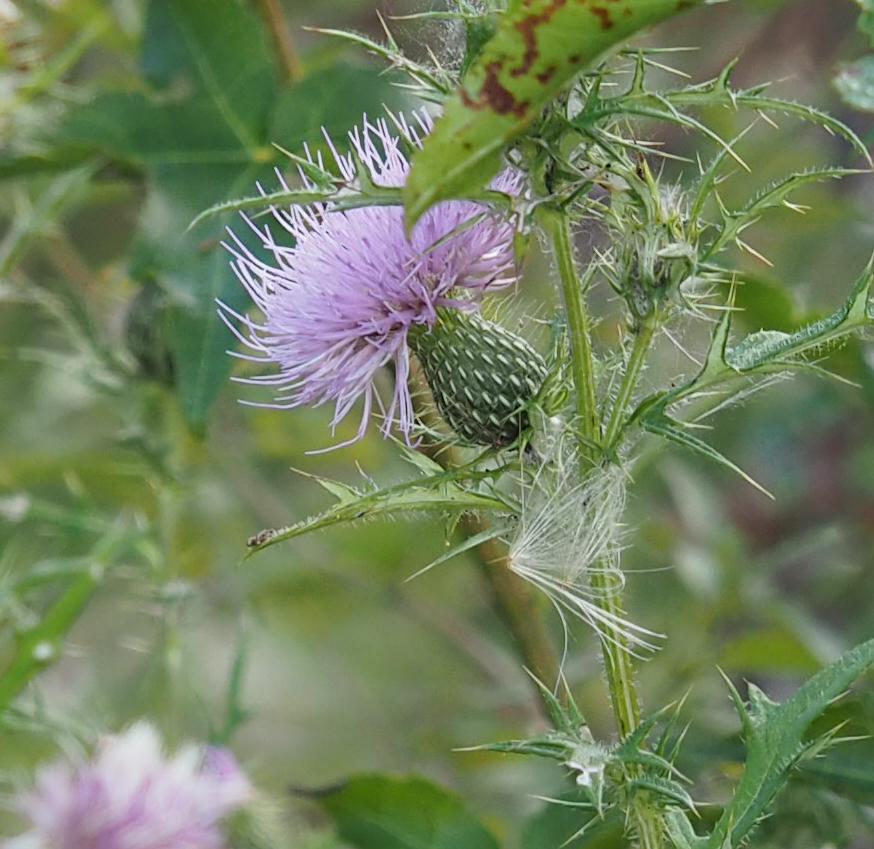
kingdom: Plantae
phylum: Tracheophyta
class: Magnoliopsida
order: Asterales
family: Asteraceae
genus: Cirsium
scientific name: Cirsium discolor
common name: Field thistle
